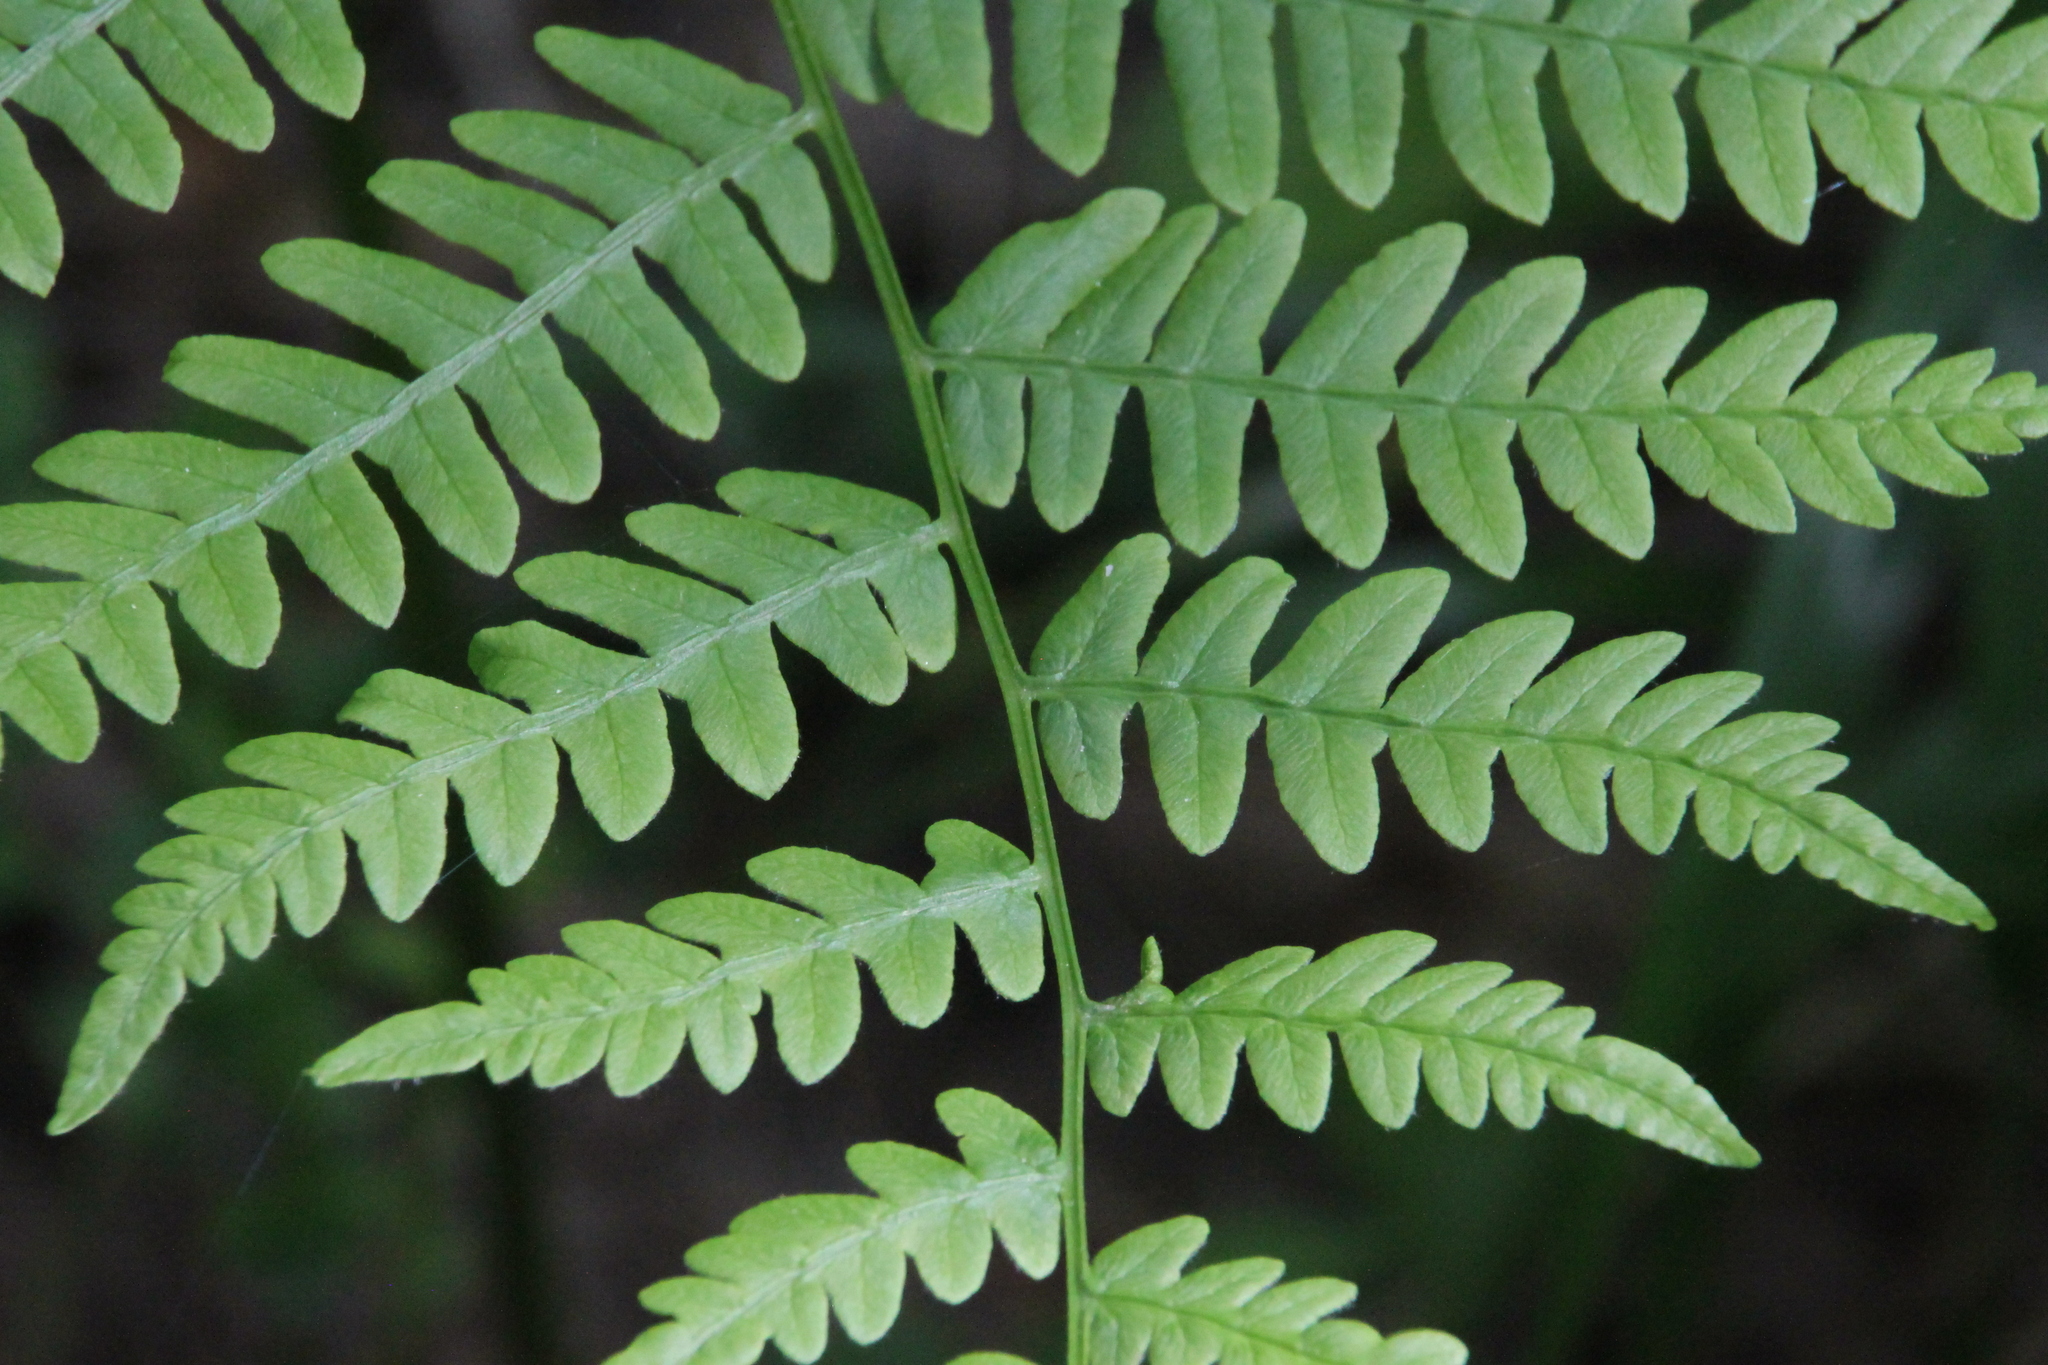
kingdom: Plantae
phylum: Tracheophyta
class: Polypodiopsida
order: Polypodiales
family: Dennstaedtiaceae
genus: Pteridium
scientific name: Pteridium aquilinum
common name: Bracken
